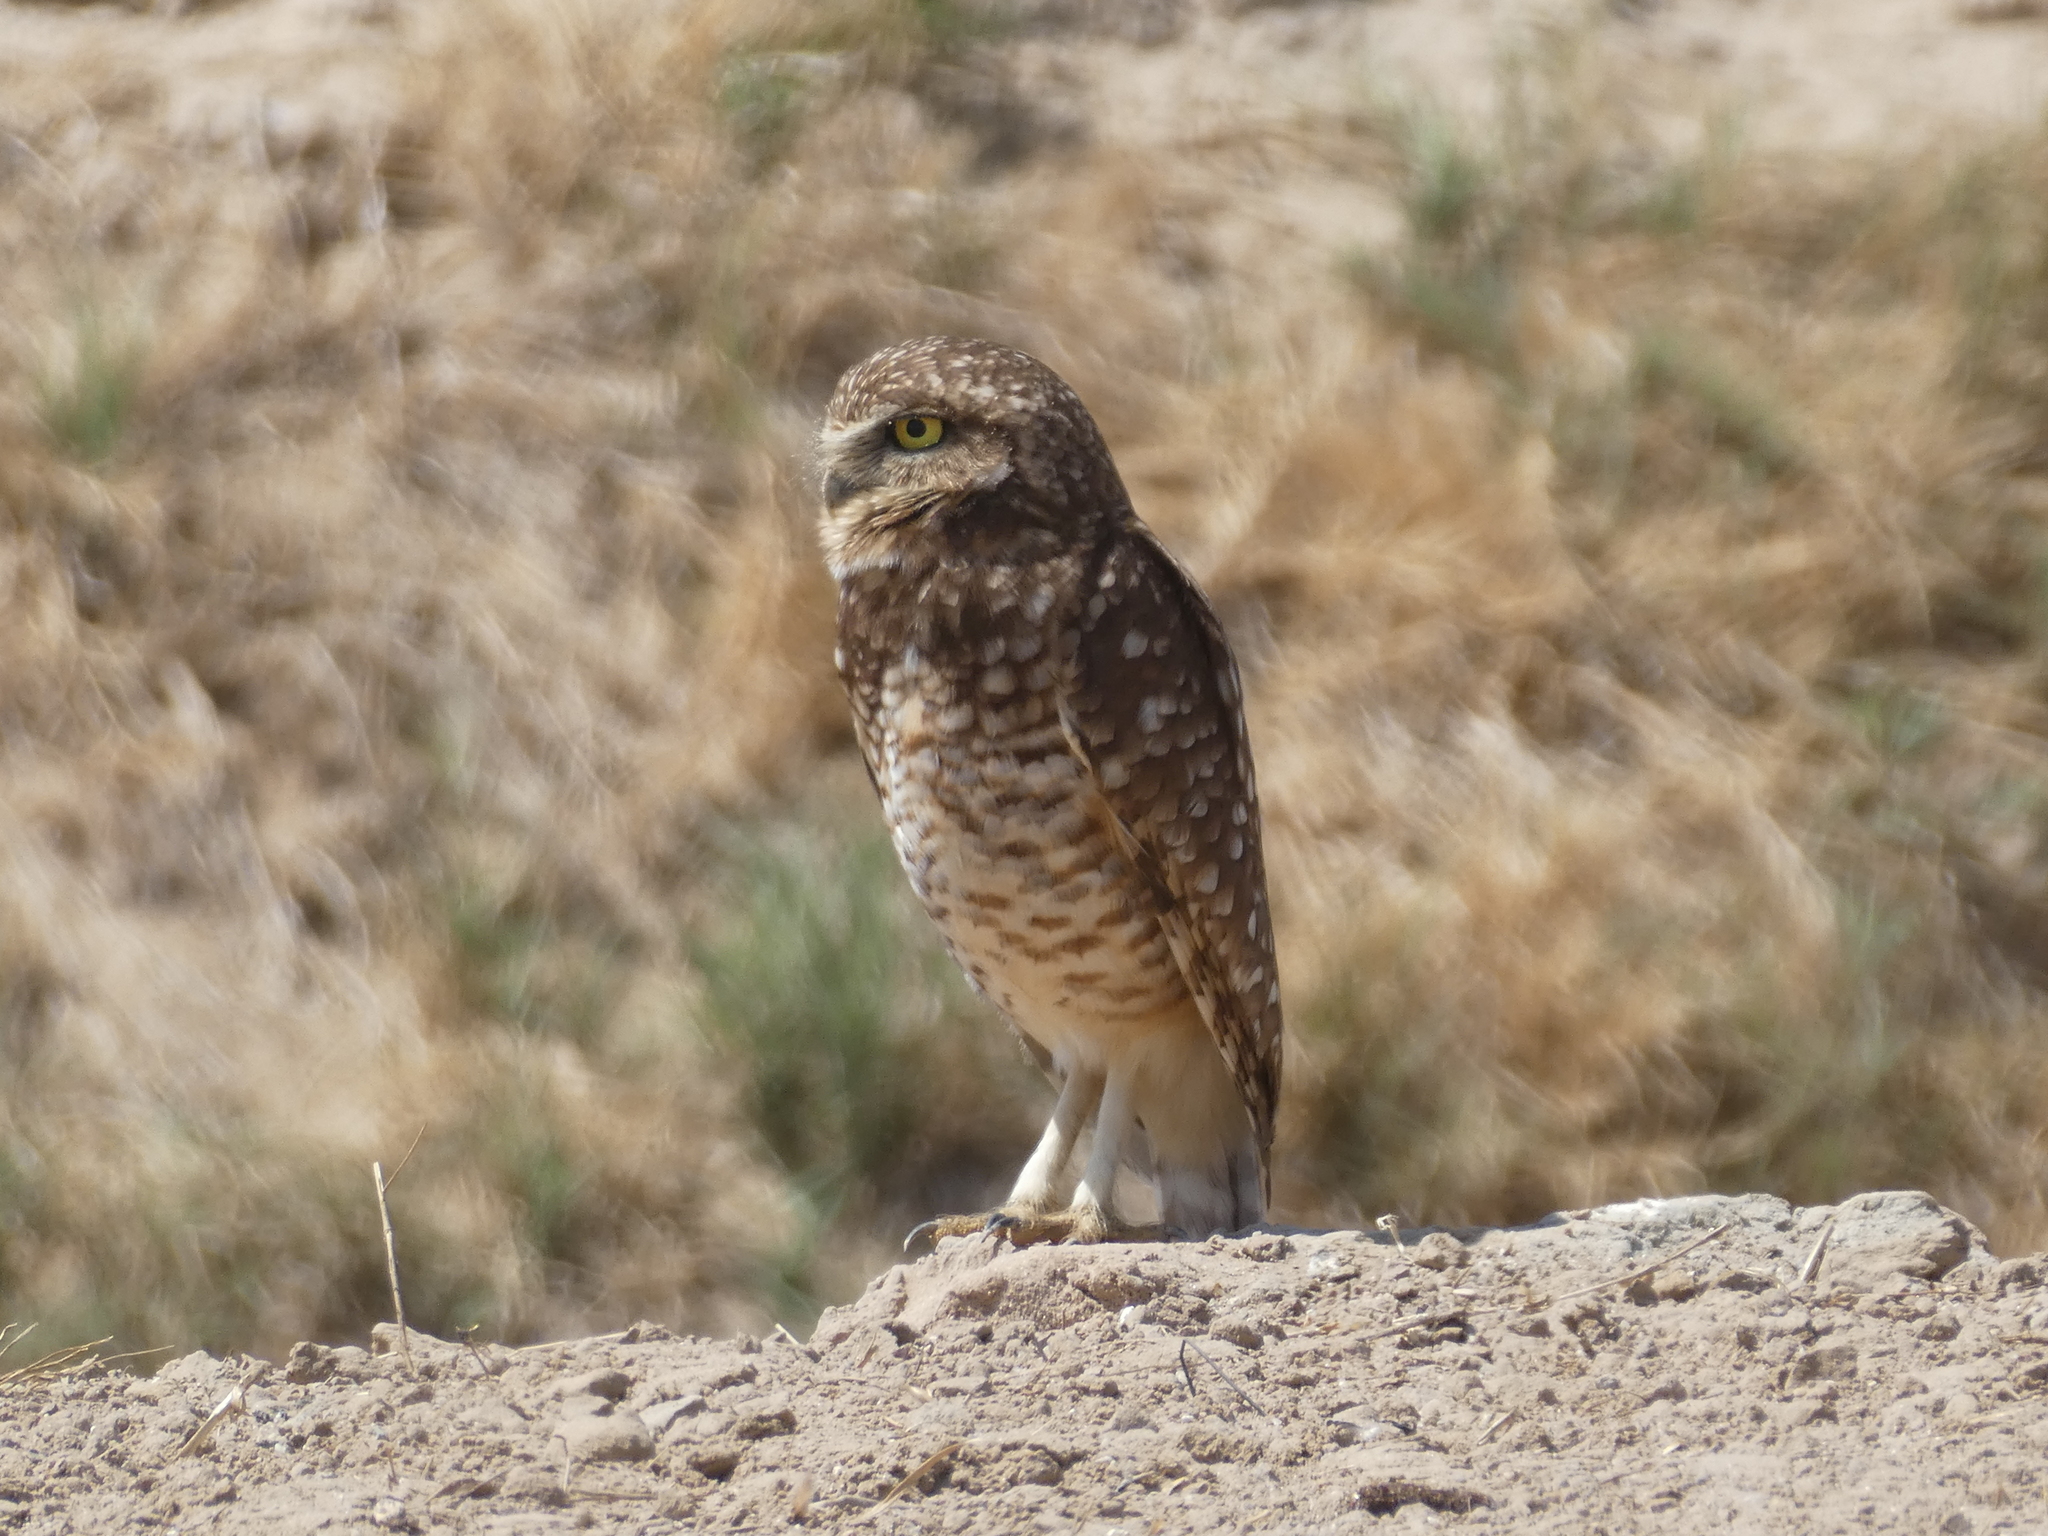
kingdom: Animalia
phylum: Chordata
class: Aves
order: Strigiformes
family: Strigidae
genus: Athene
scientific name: Athene cunicularia
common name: Burrowing owl
